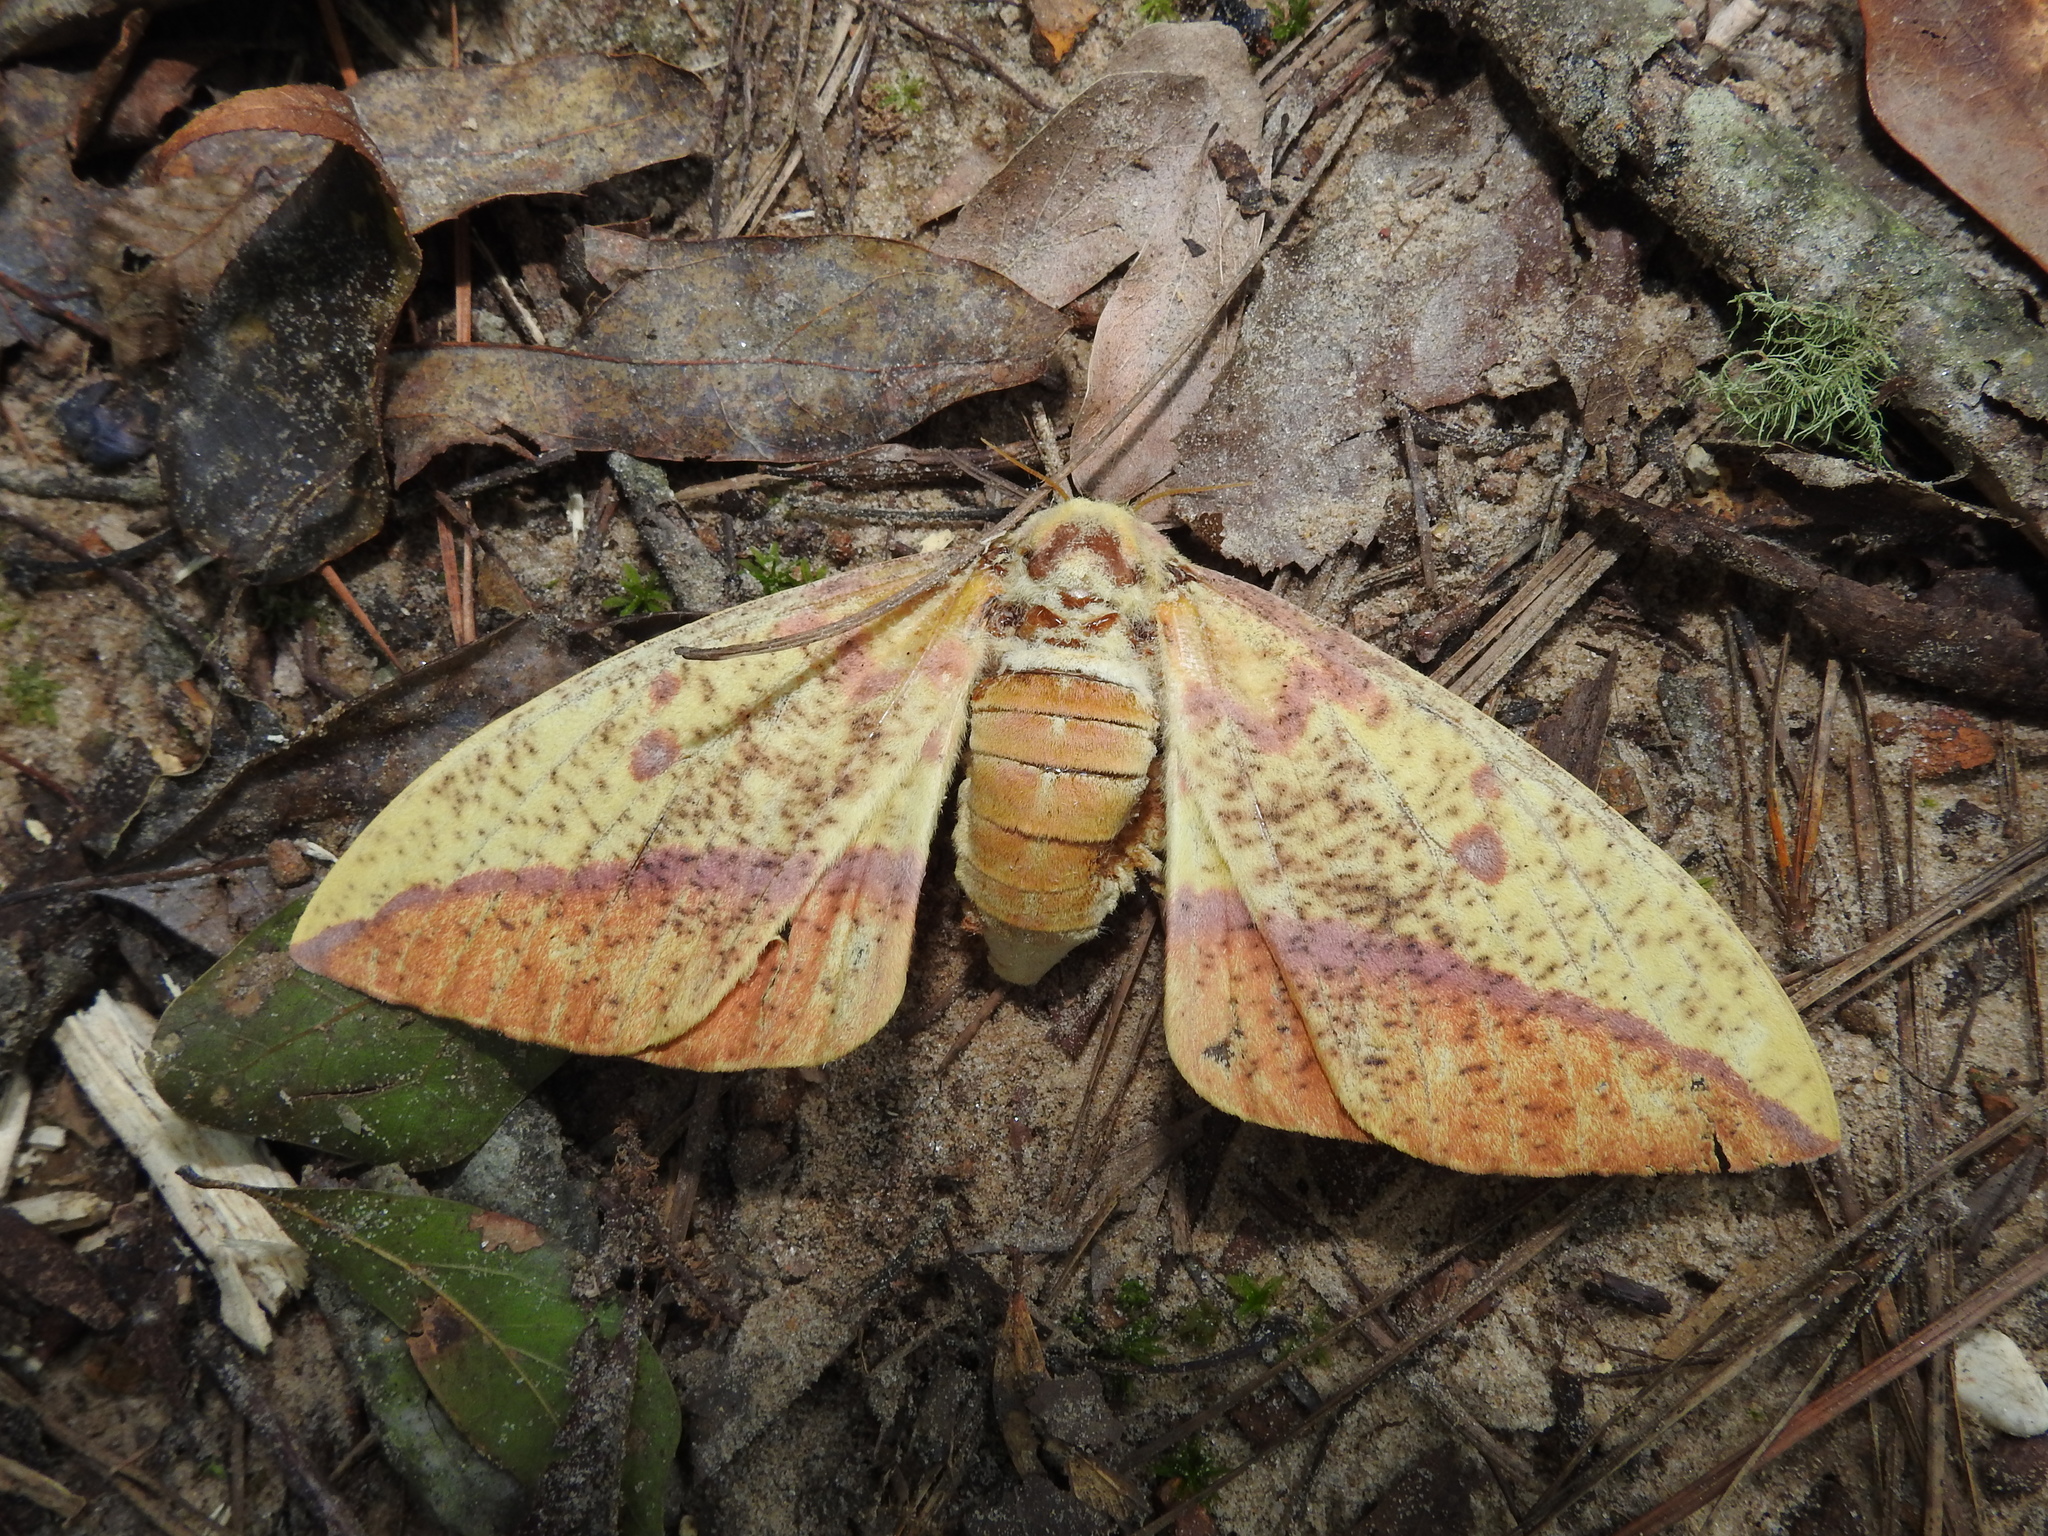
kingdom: Animalia
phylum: Arthropoda
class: Insecta
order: Lepidoptera
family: Saturniidae
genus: Eacles
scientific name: Eacles imperialis
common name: Imperial moth
